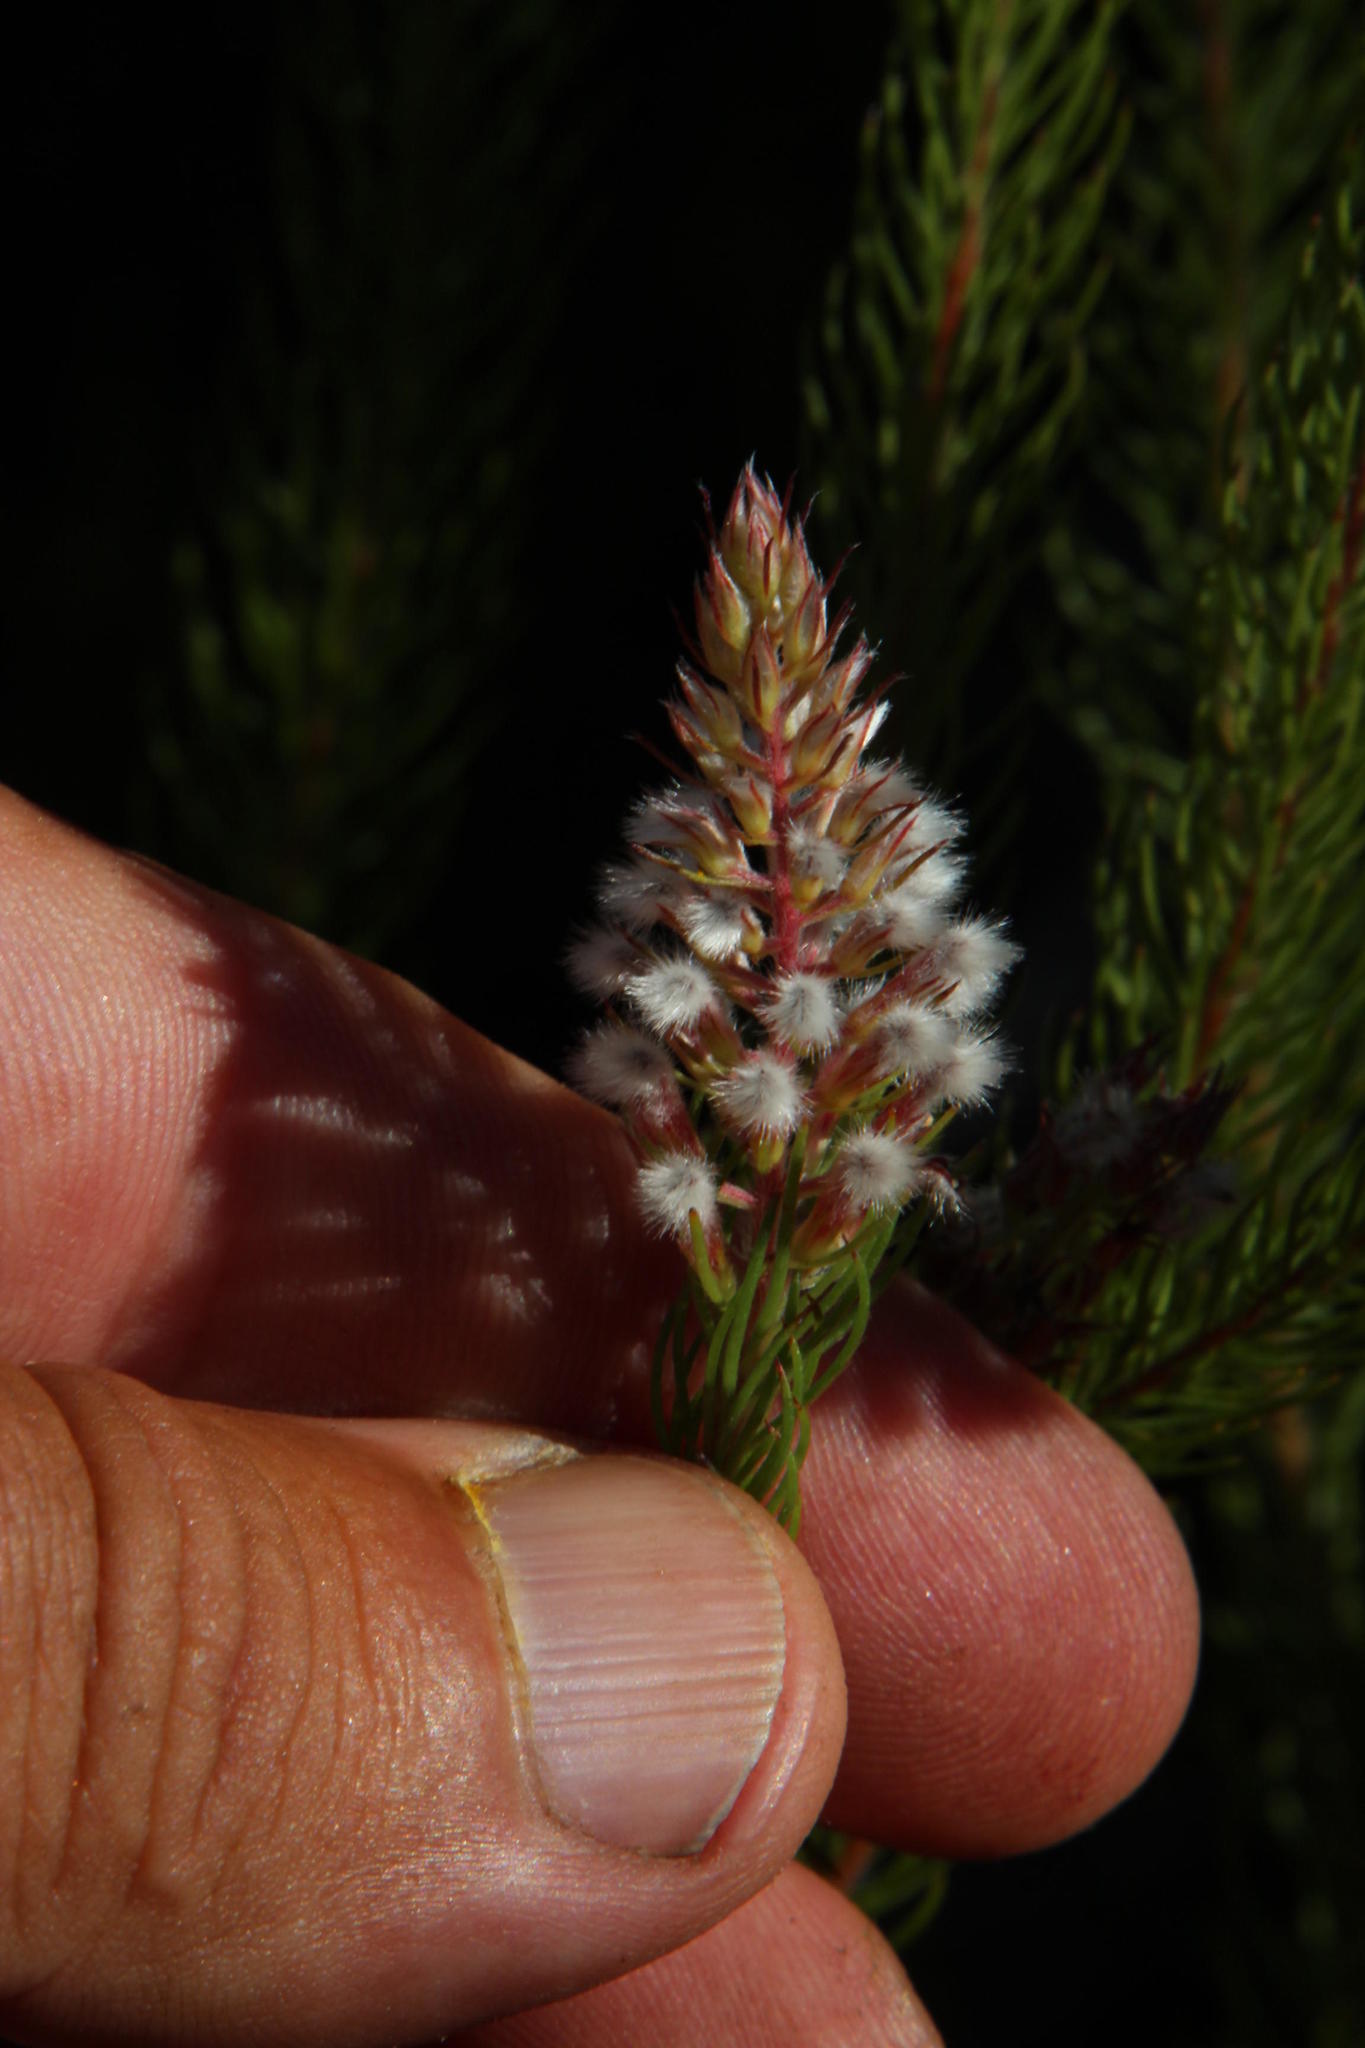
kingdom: Plantae
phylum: Tracheophyta
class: Magnoliopsida
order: Proteales
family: Proteaceae
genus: Spatalla
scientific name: Spatalla parilis
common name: Spike spoon
